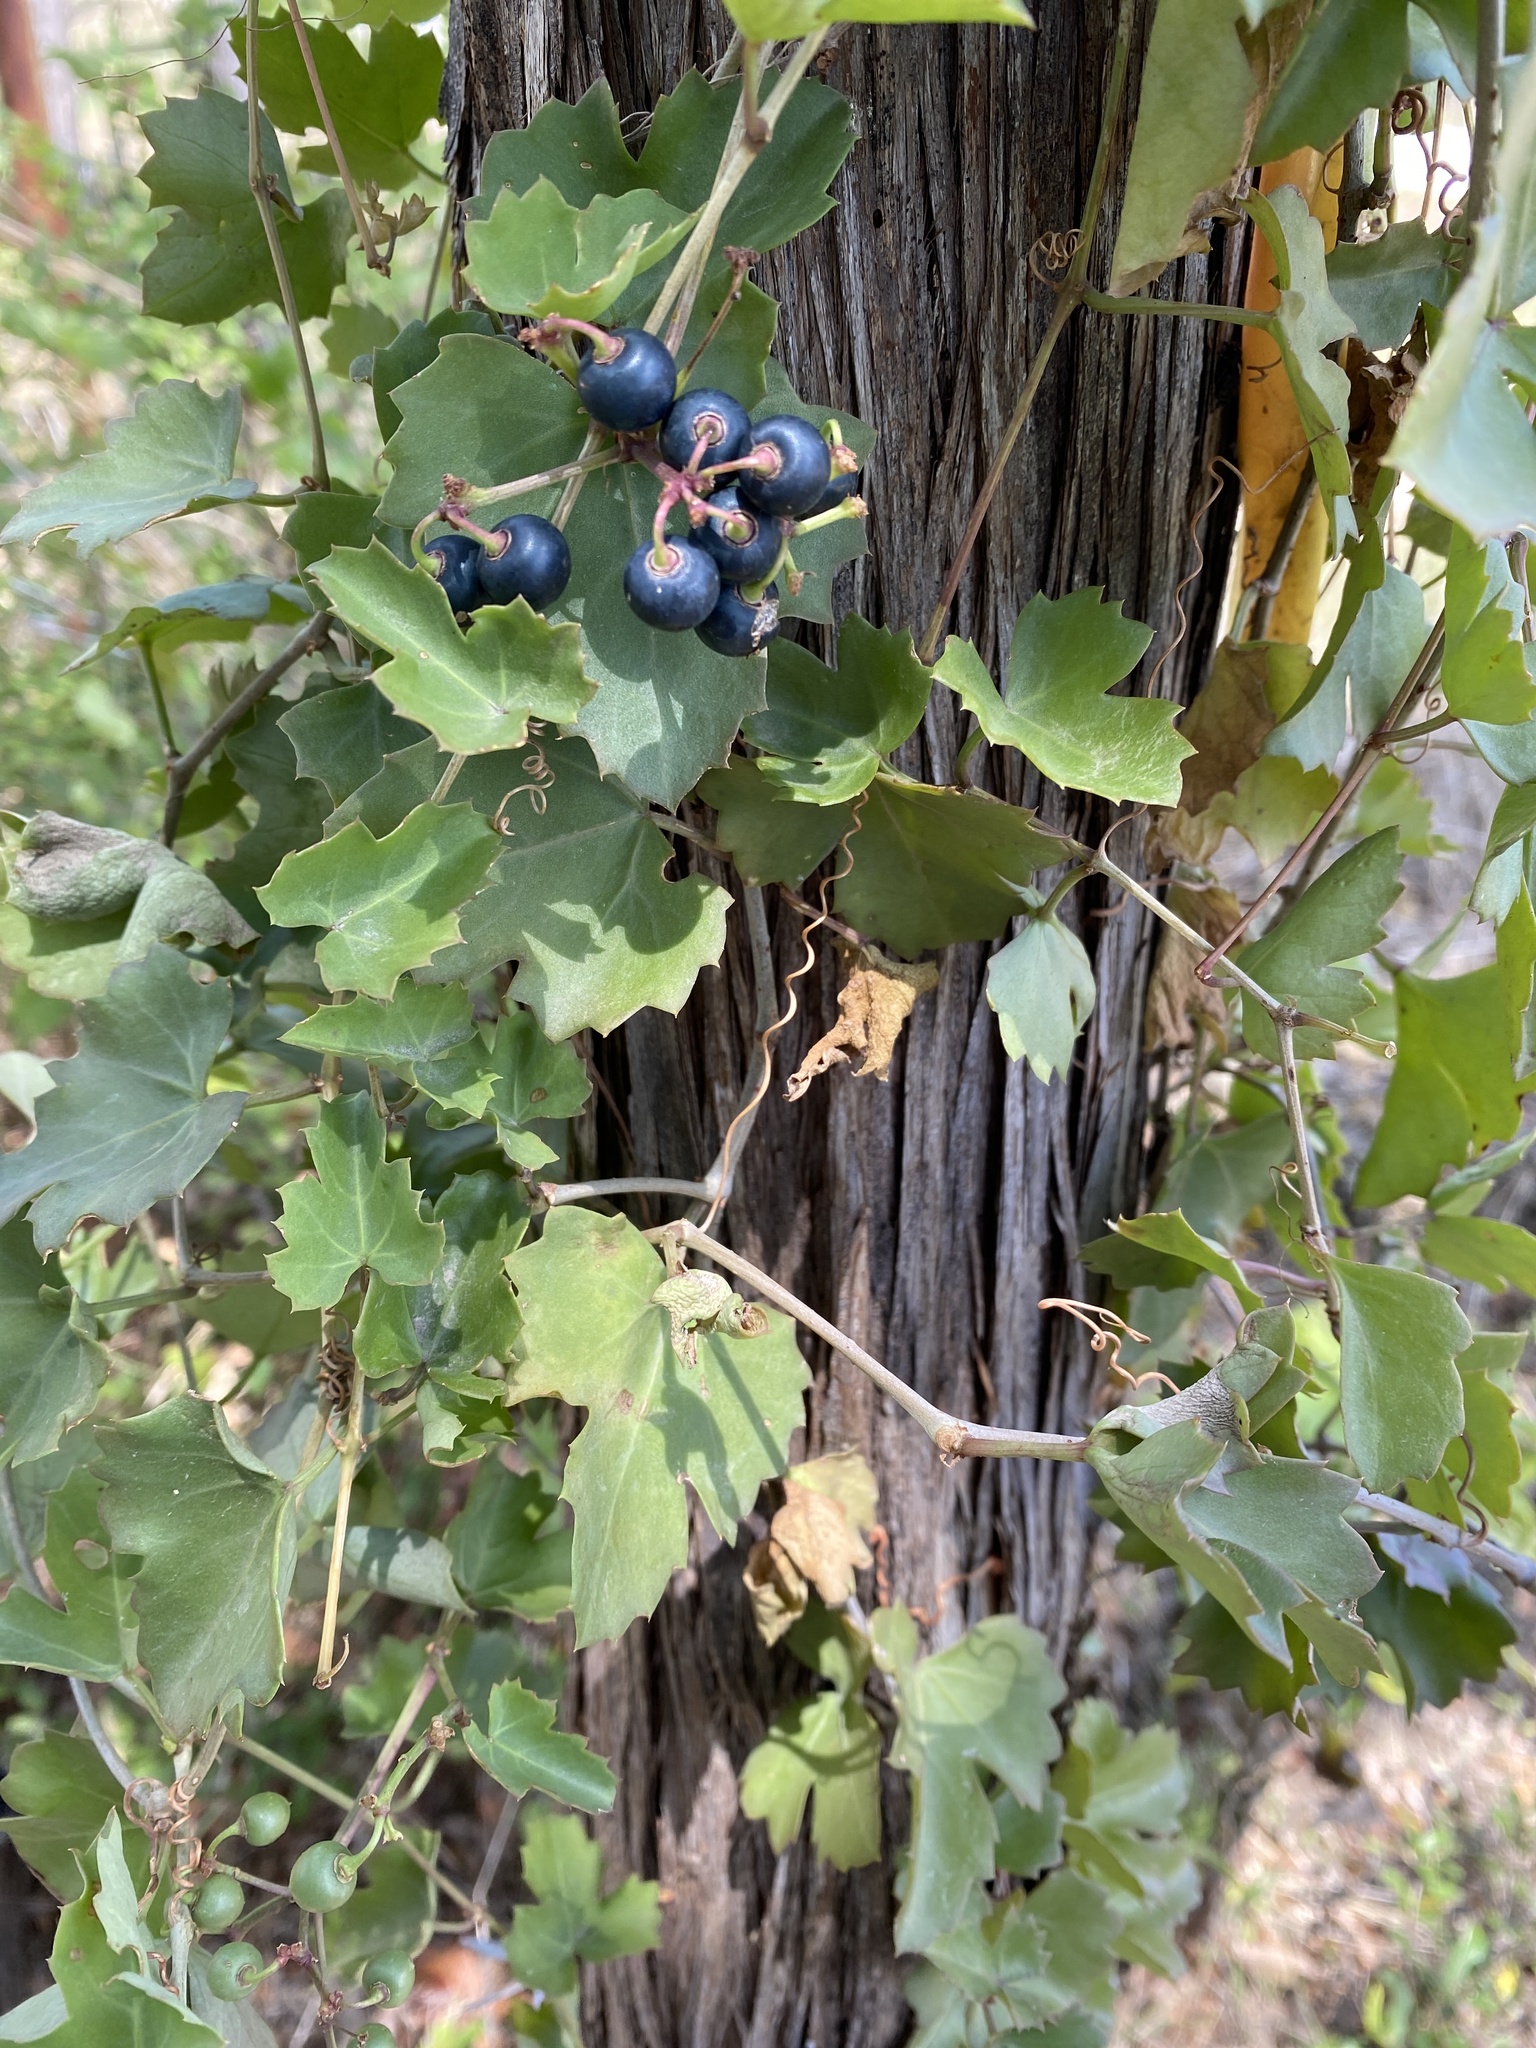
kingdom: Plantae
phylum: Tracheophyta
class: Magnoliopsida
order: Vitales
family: Vitaceae
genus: Cissus
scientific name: Cissus trifoliata
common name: Vine-sorrel
